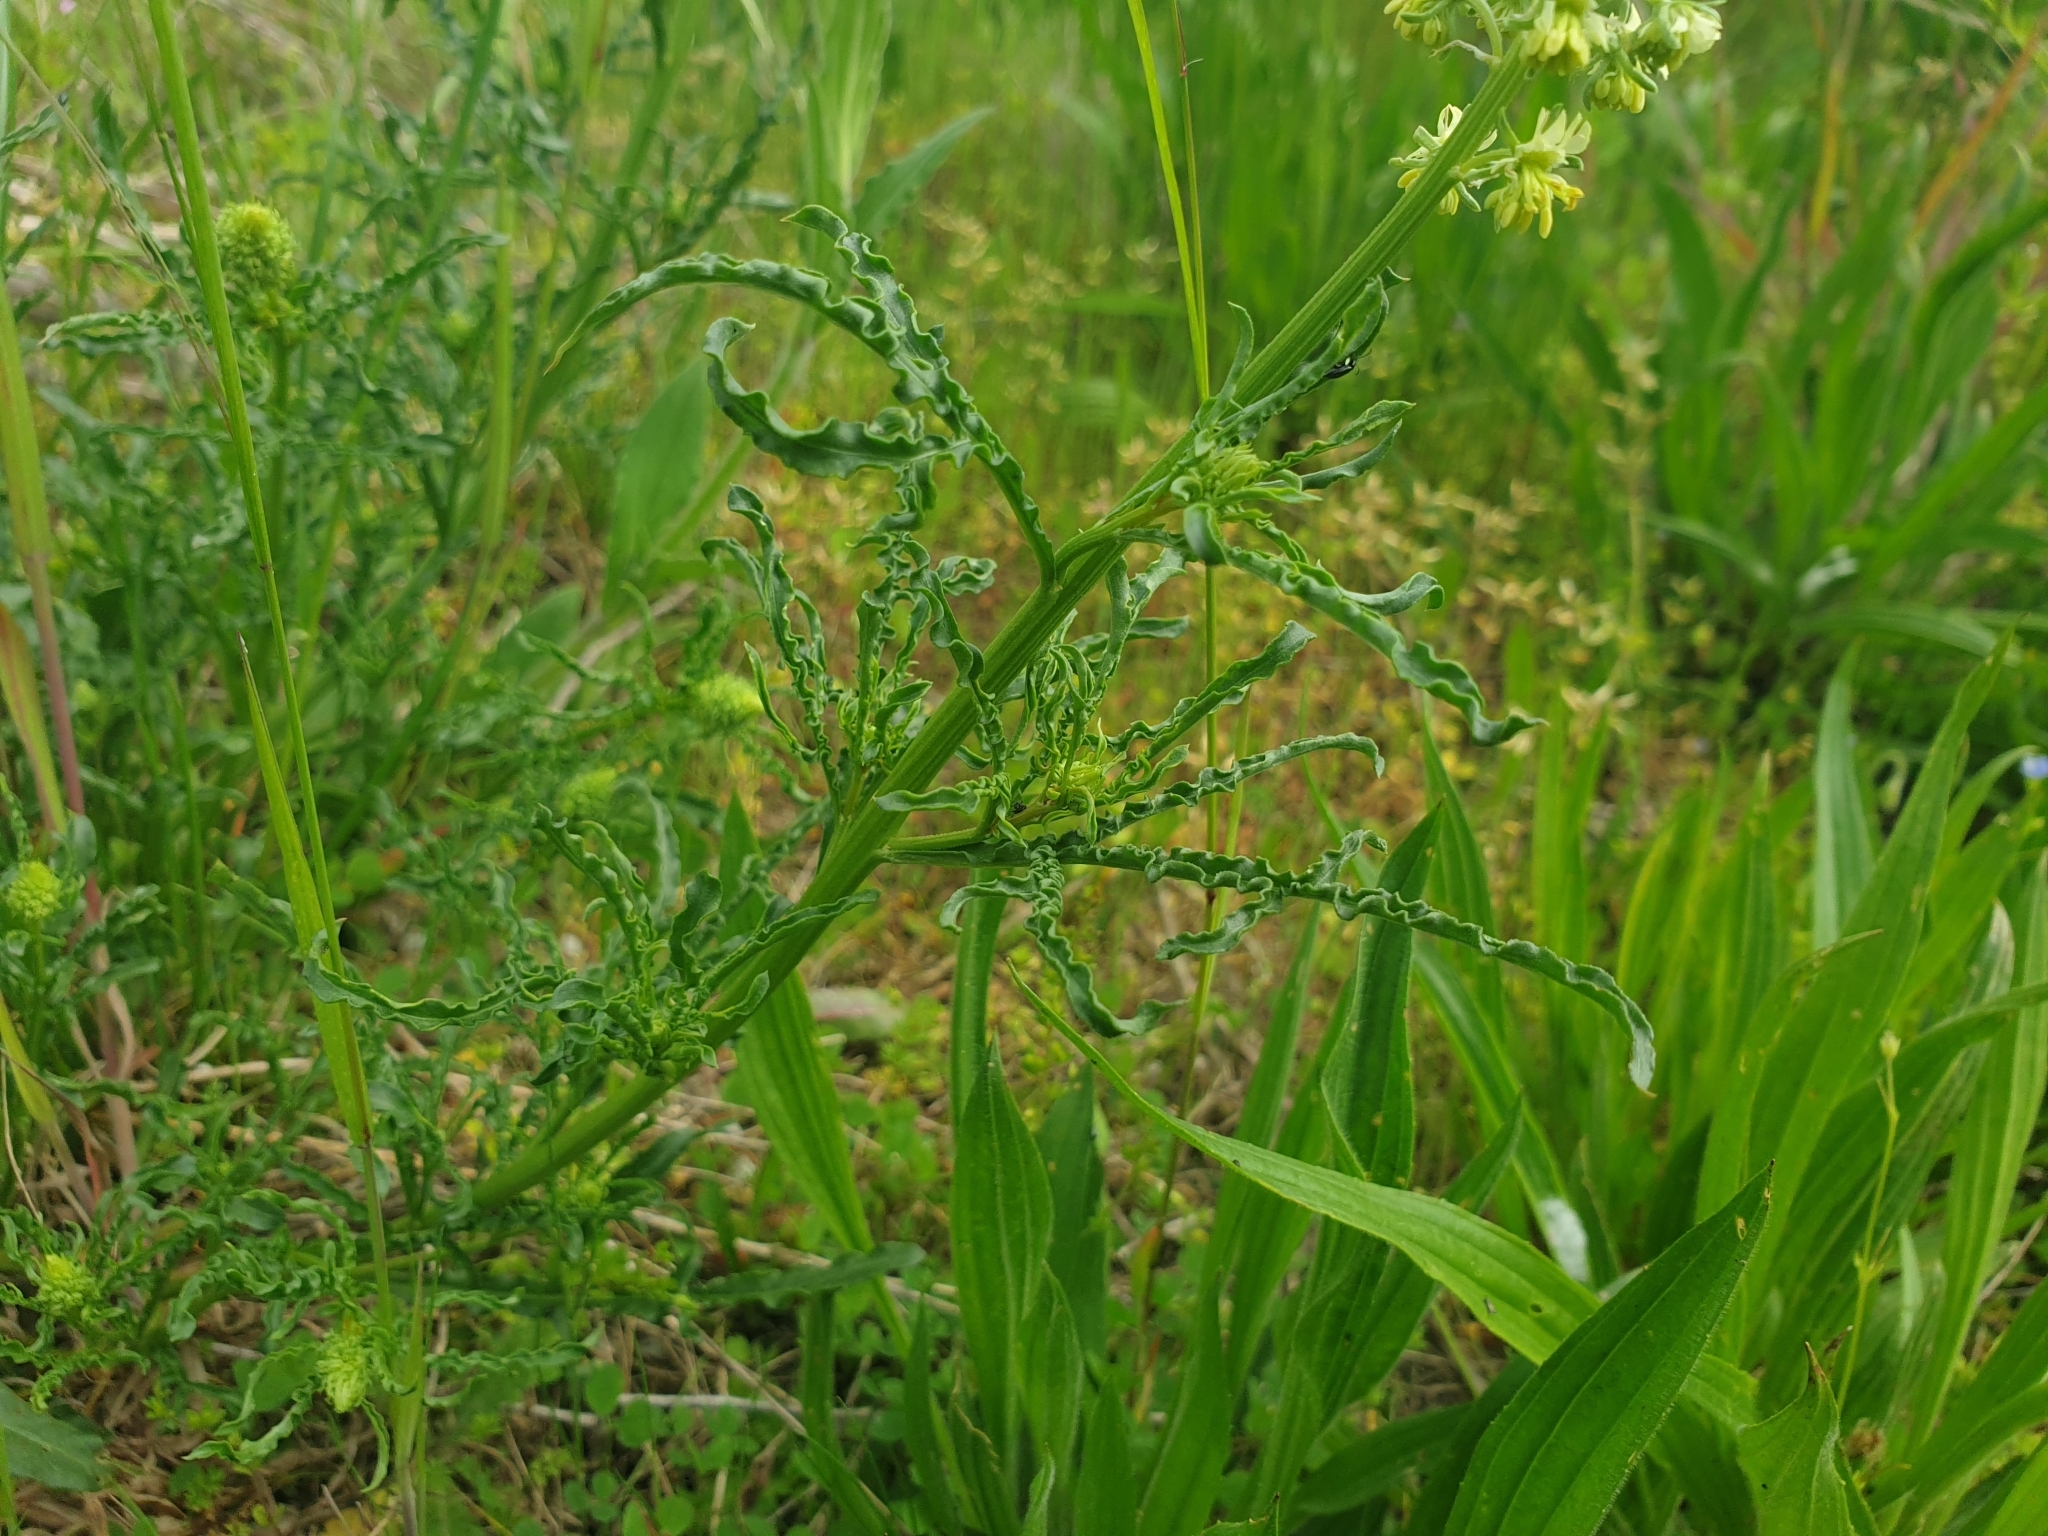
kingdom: Plantae
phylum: Tracheophyta
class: Magnoliopsida
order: Brassicales
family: Resedaceae
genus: Reseda
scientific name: Reseda lutea
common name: Wild mignonette
